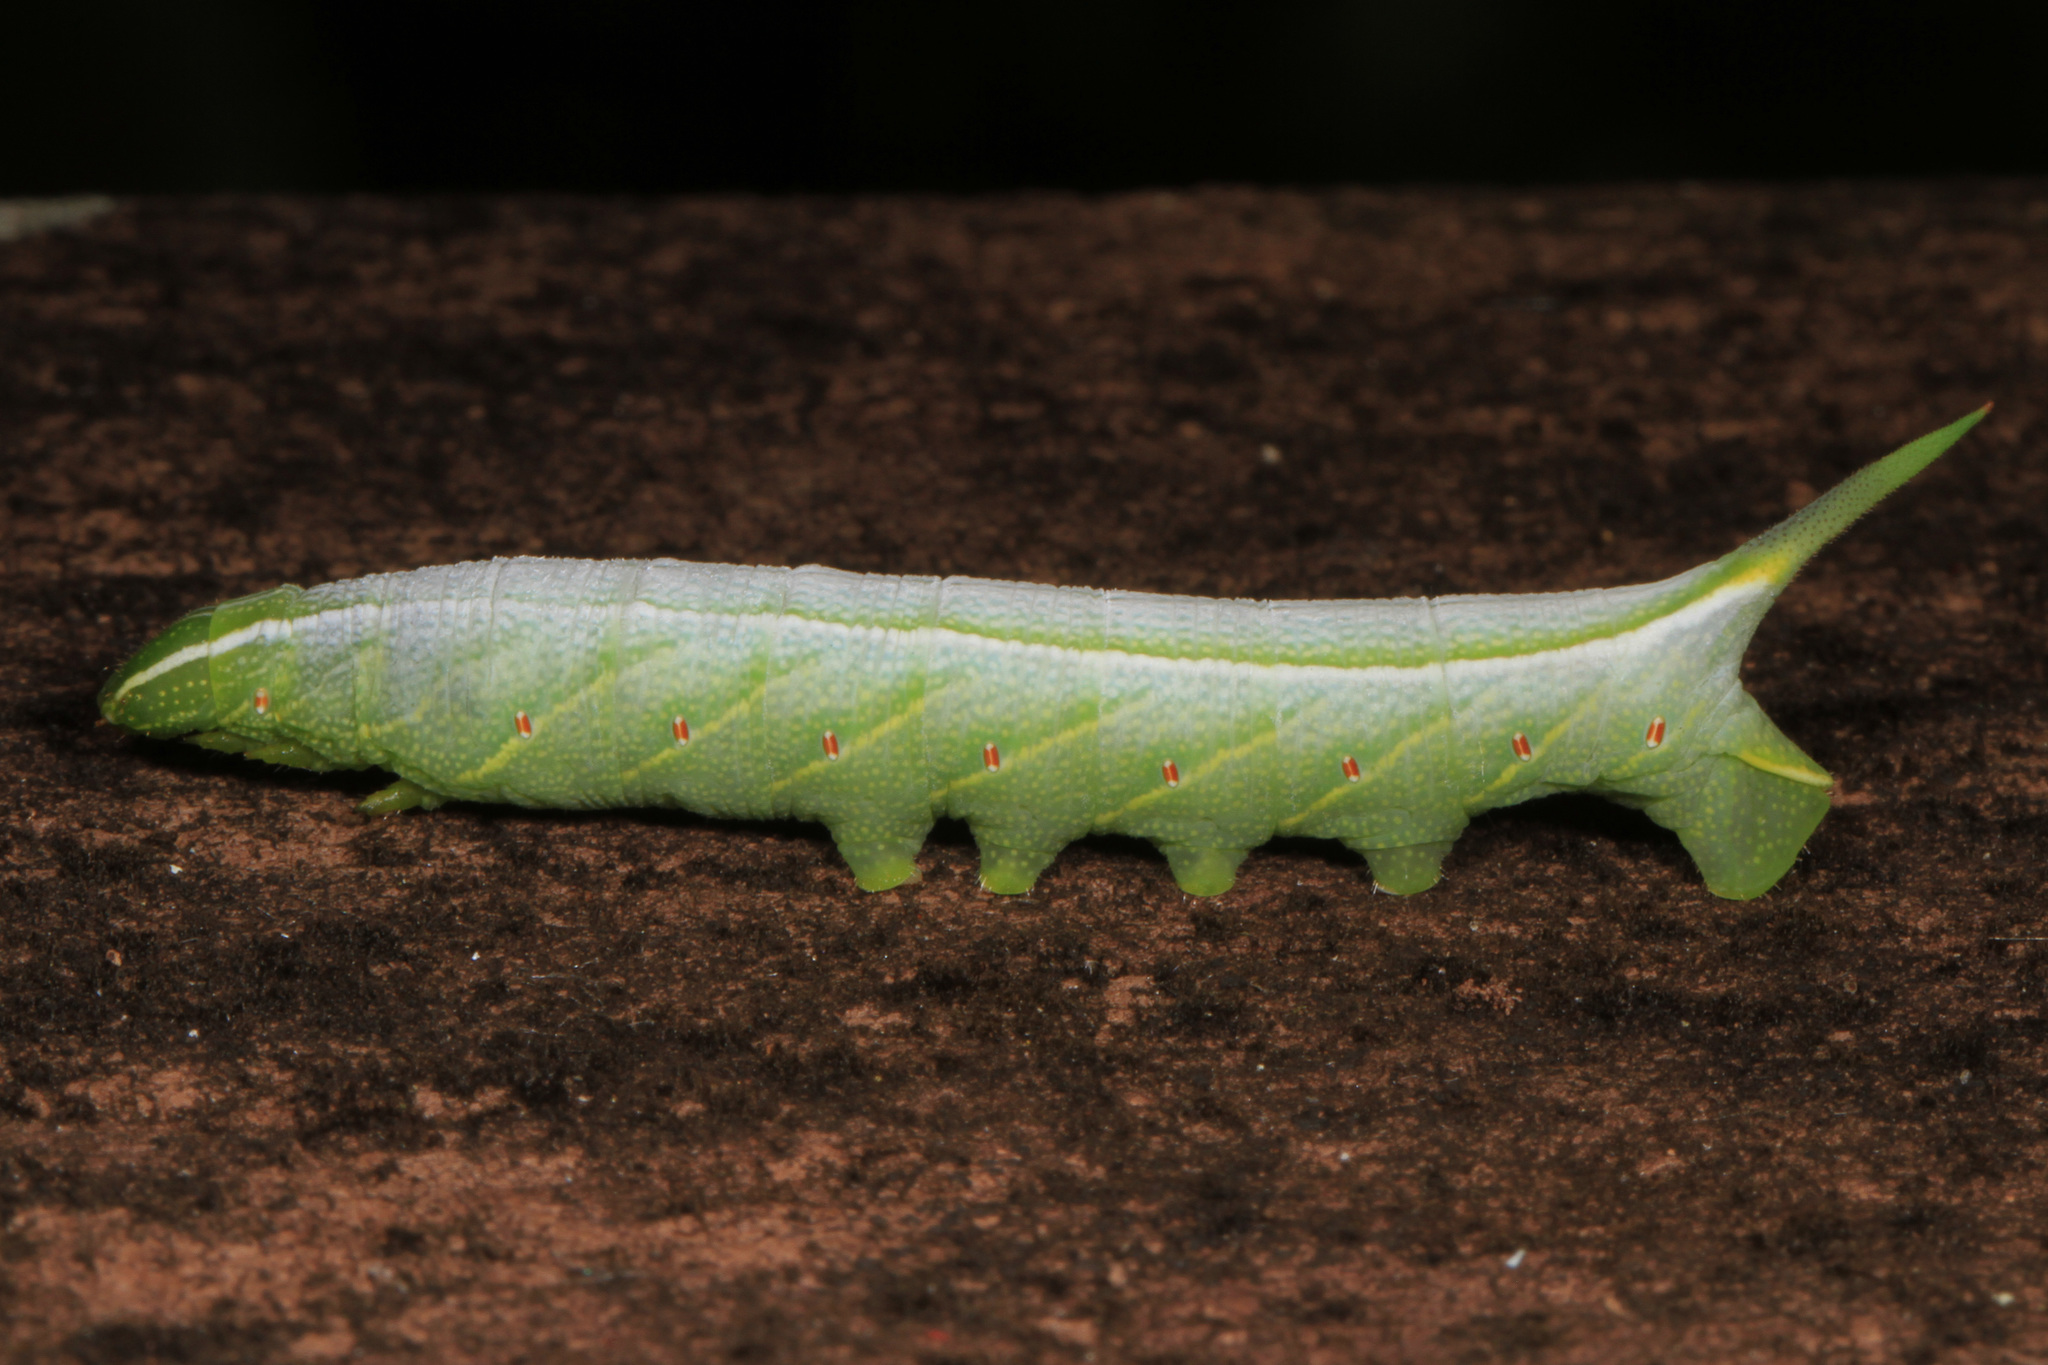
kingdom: Animalia
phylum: Arthropoda
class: Insecta
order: Lepidoptera
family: Sphingidae
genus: Enyo
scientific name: Enyo lugubris
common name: Mournful sphinx
